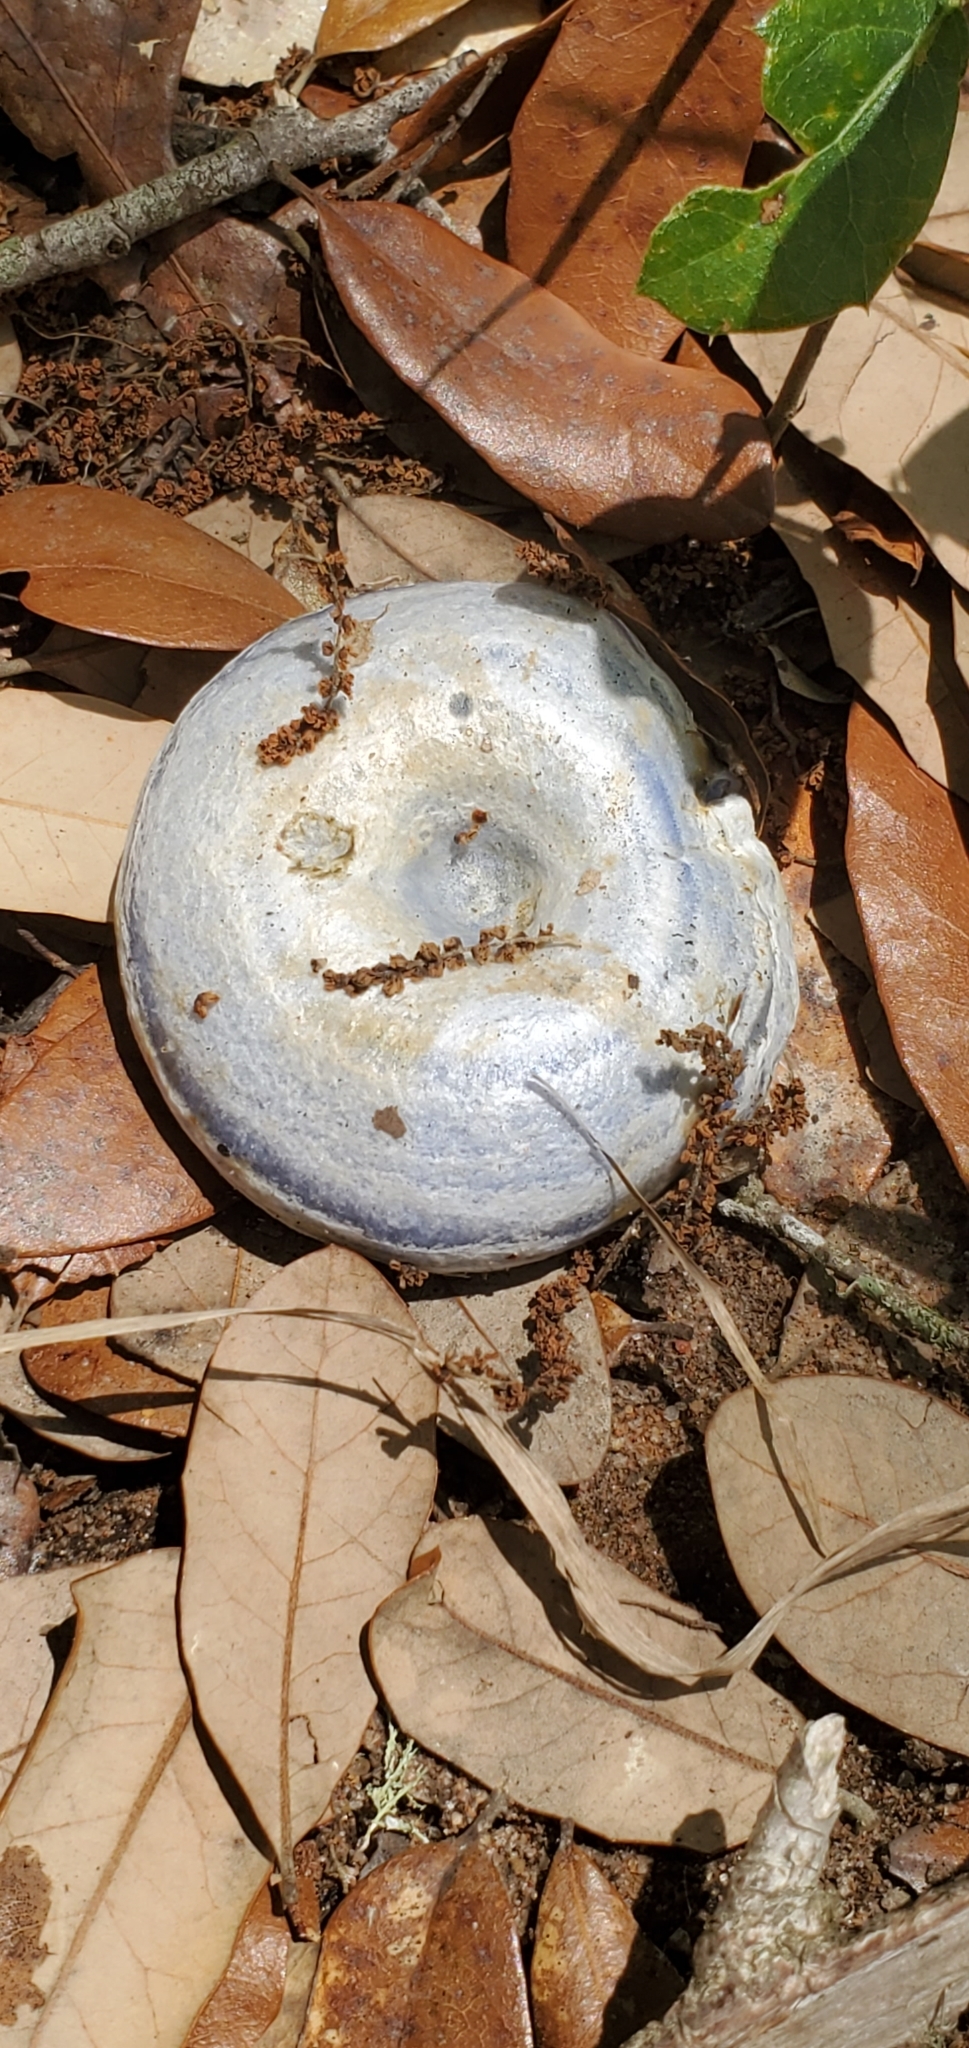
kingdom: Fungi
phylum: Basidiomycota
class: Agaricomycetes
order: Russulales
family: Russulaceae
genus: Lactarius
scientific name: Lactarius indigo
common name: Indigo milk cap
